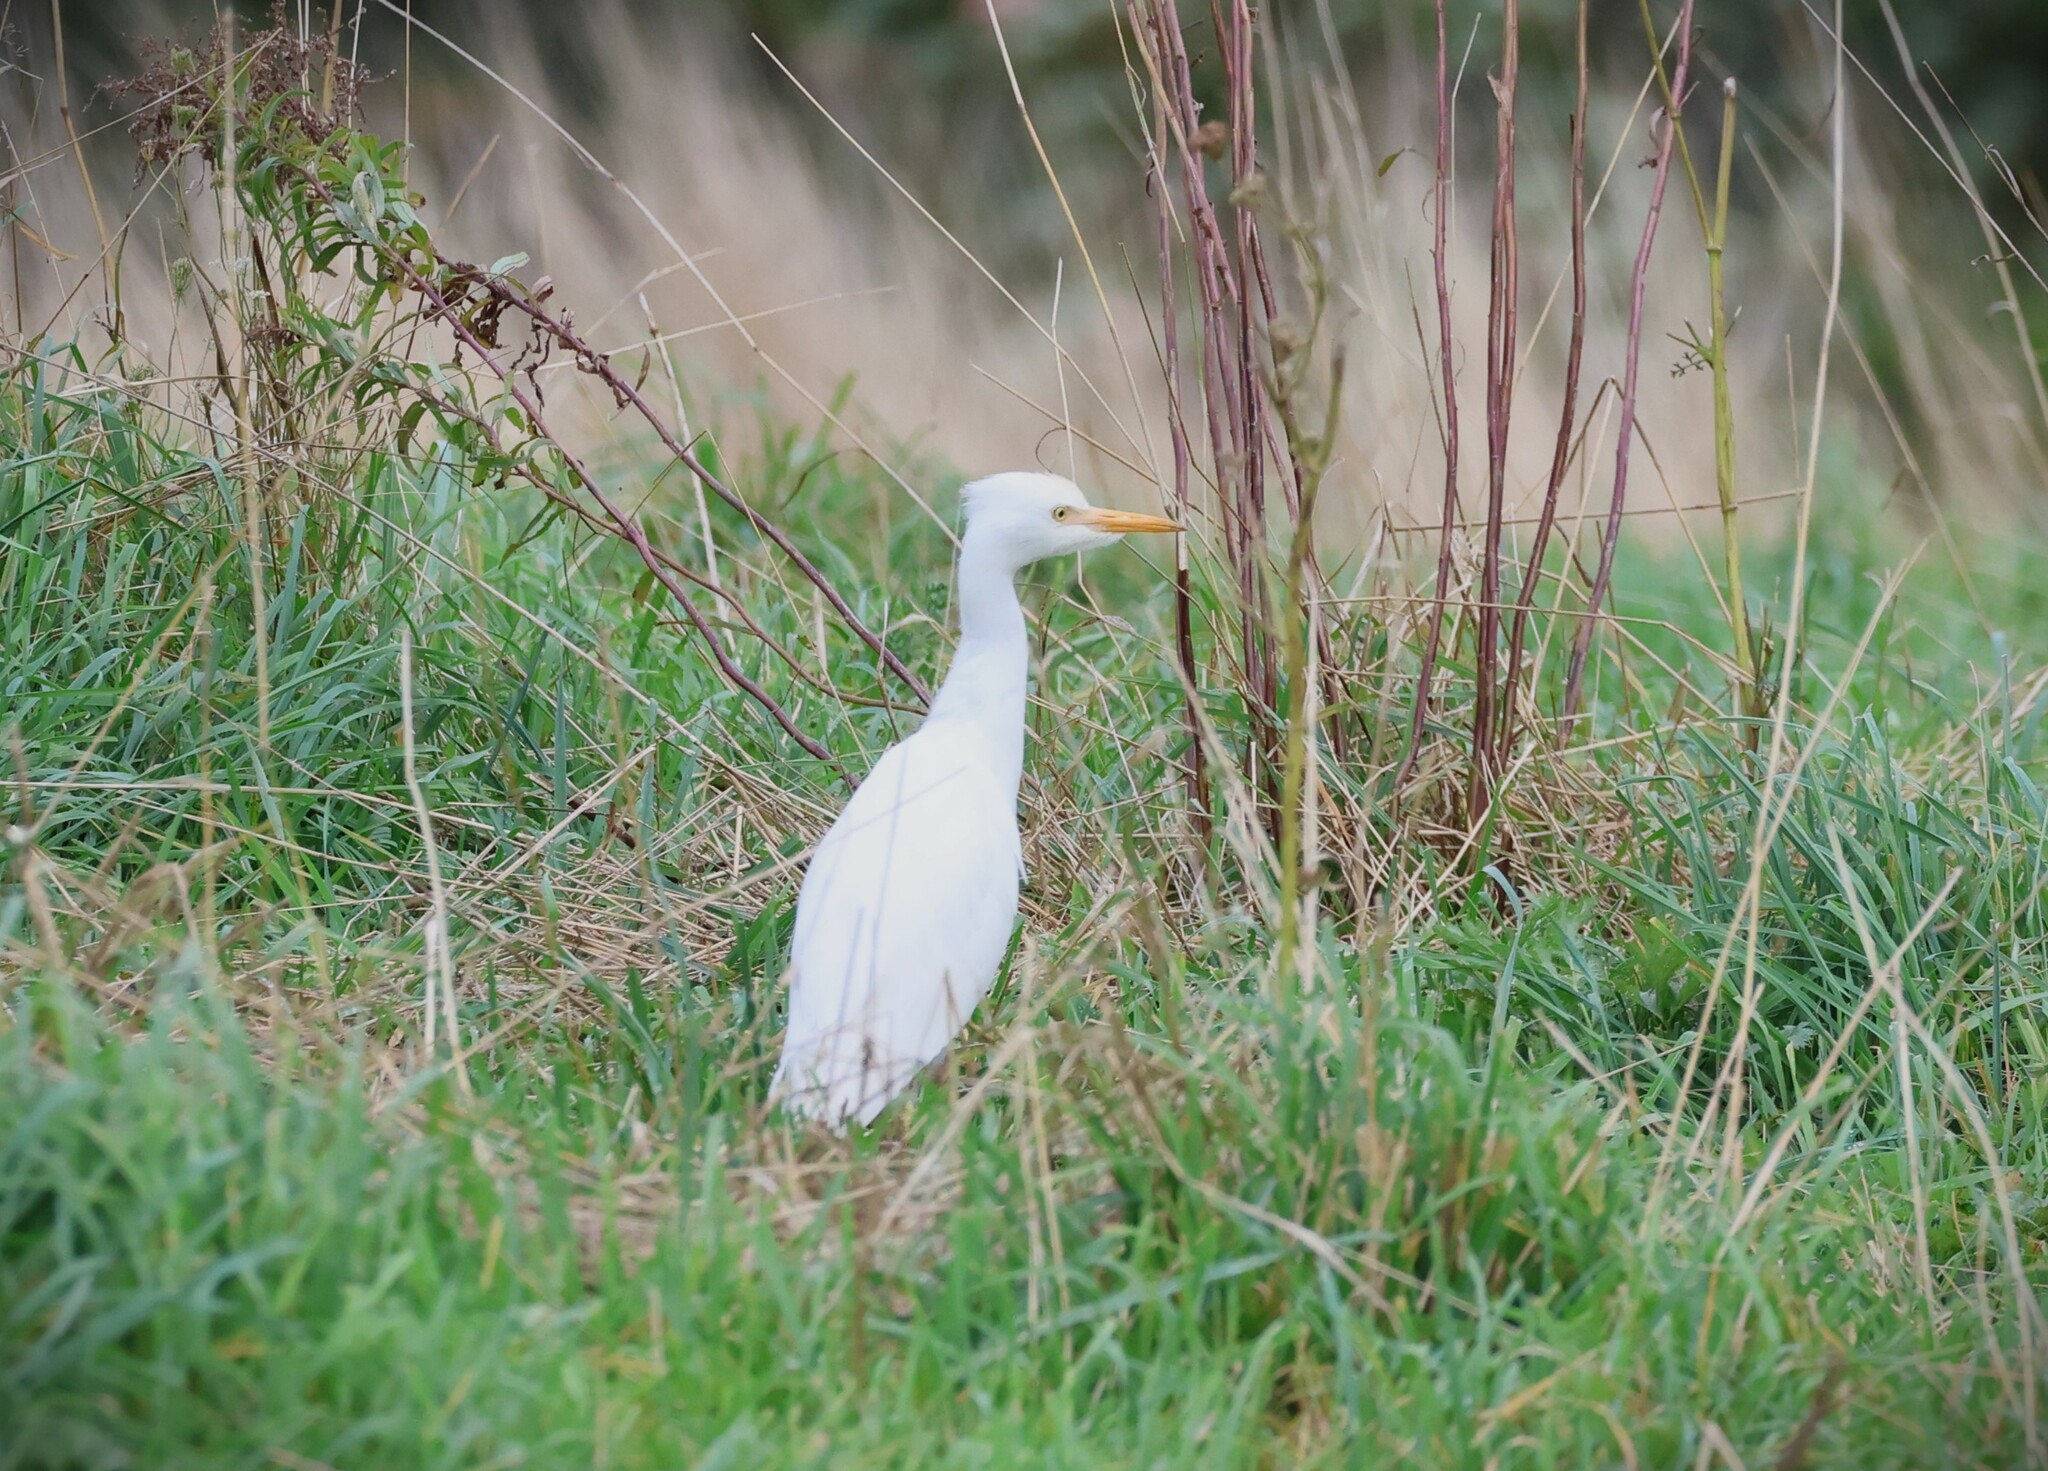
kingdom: Animalia
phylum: Chordata
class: Aves
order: Pelecaniformes
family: Ardeidae
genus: Bubulcus
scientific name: Bubulcus ibis
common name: Cattle egret
